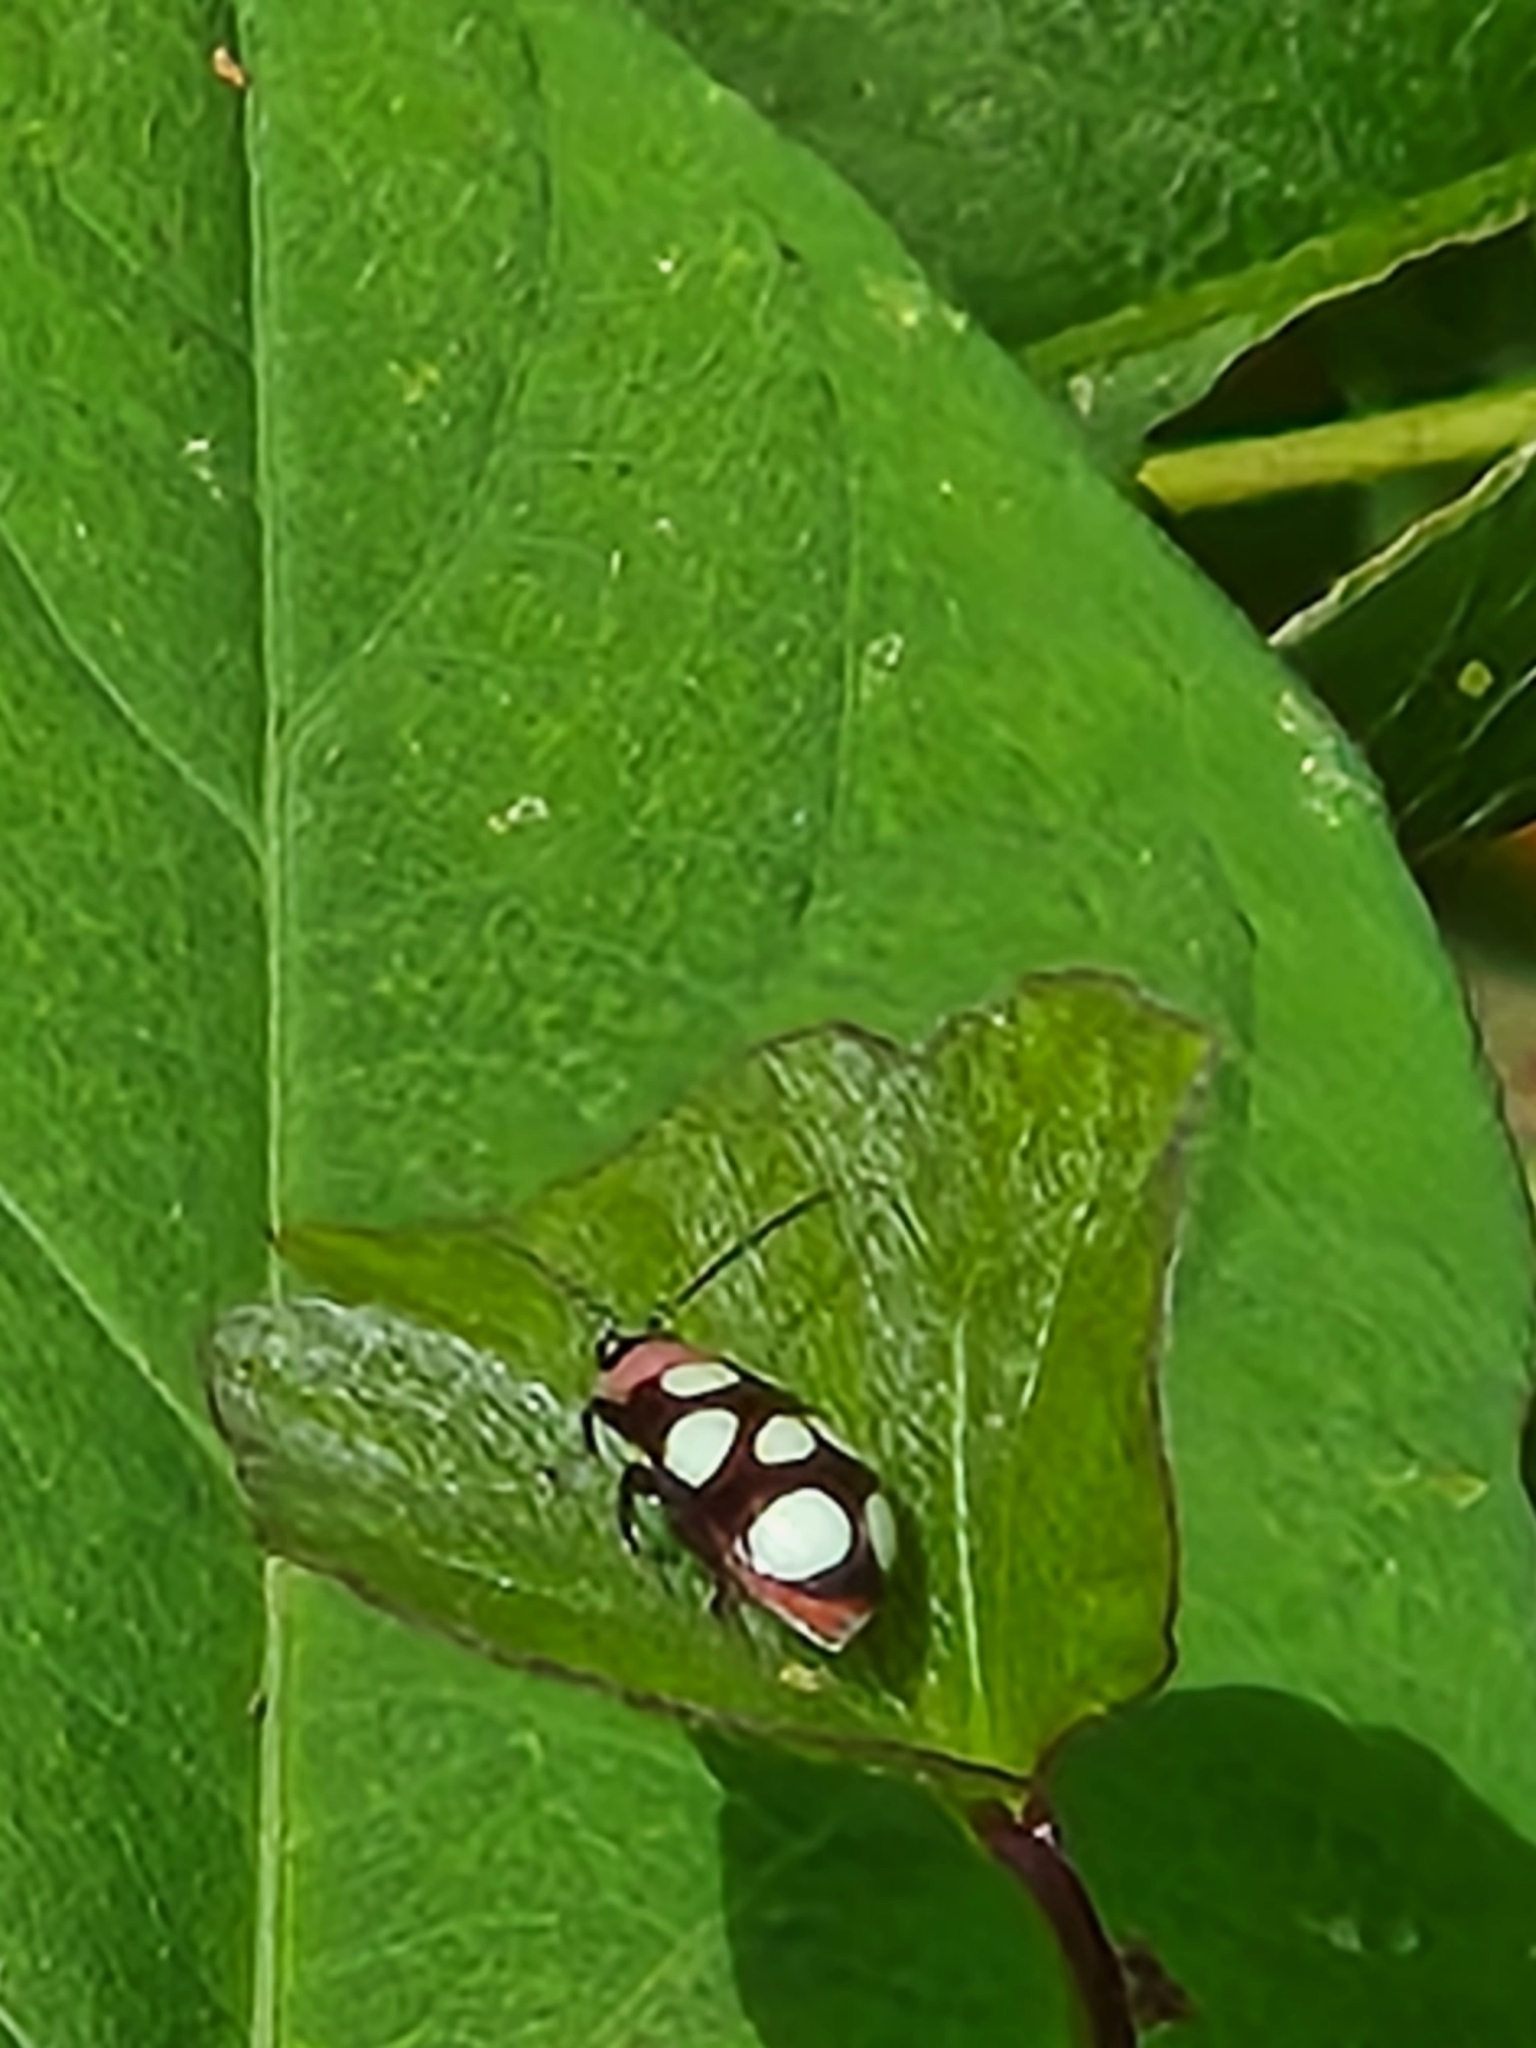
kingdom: Animalia
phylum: Arthropoda
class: Insecta
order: Coleoptera
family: Chrysomelidae
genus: Omophoita
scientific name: Omophoita aequinoctialis
